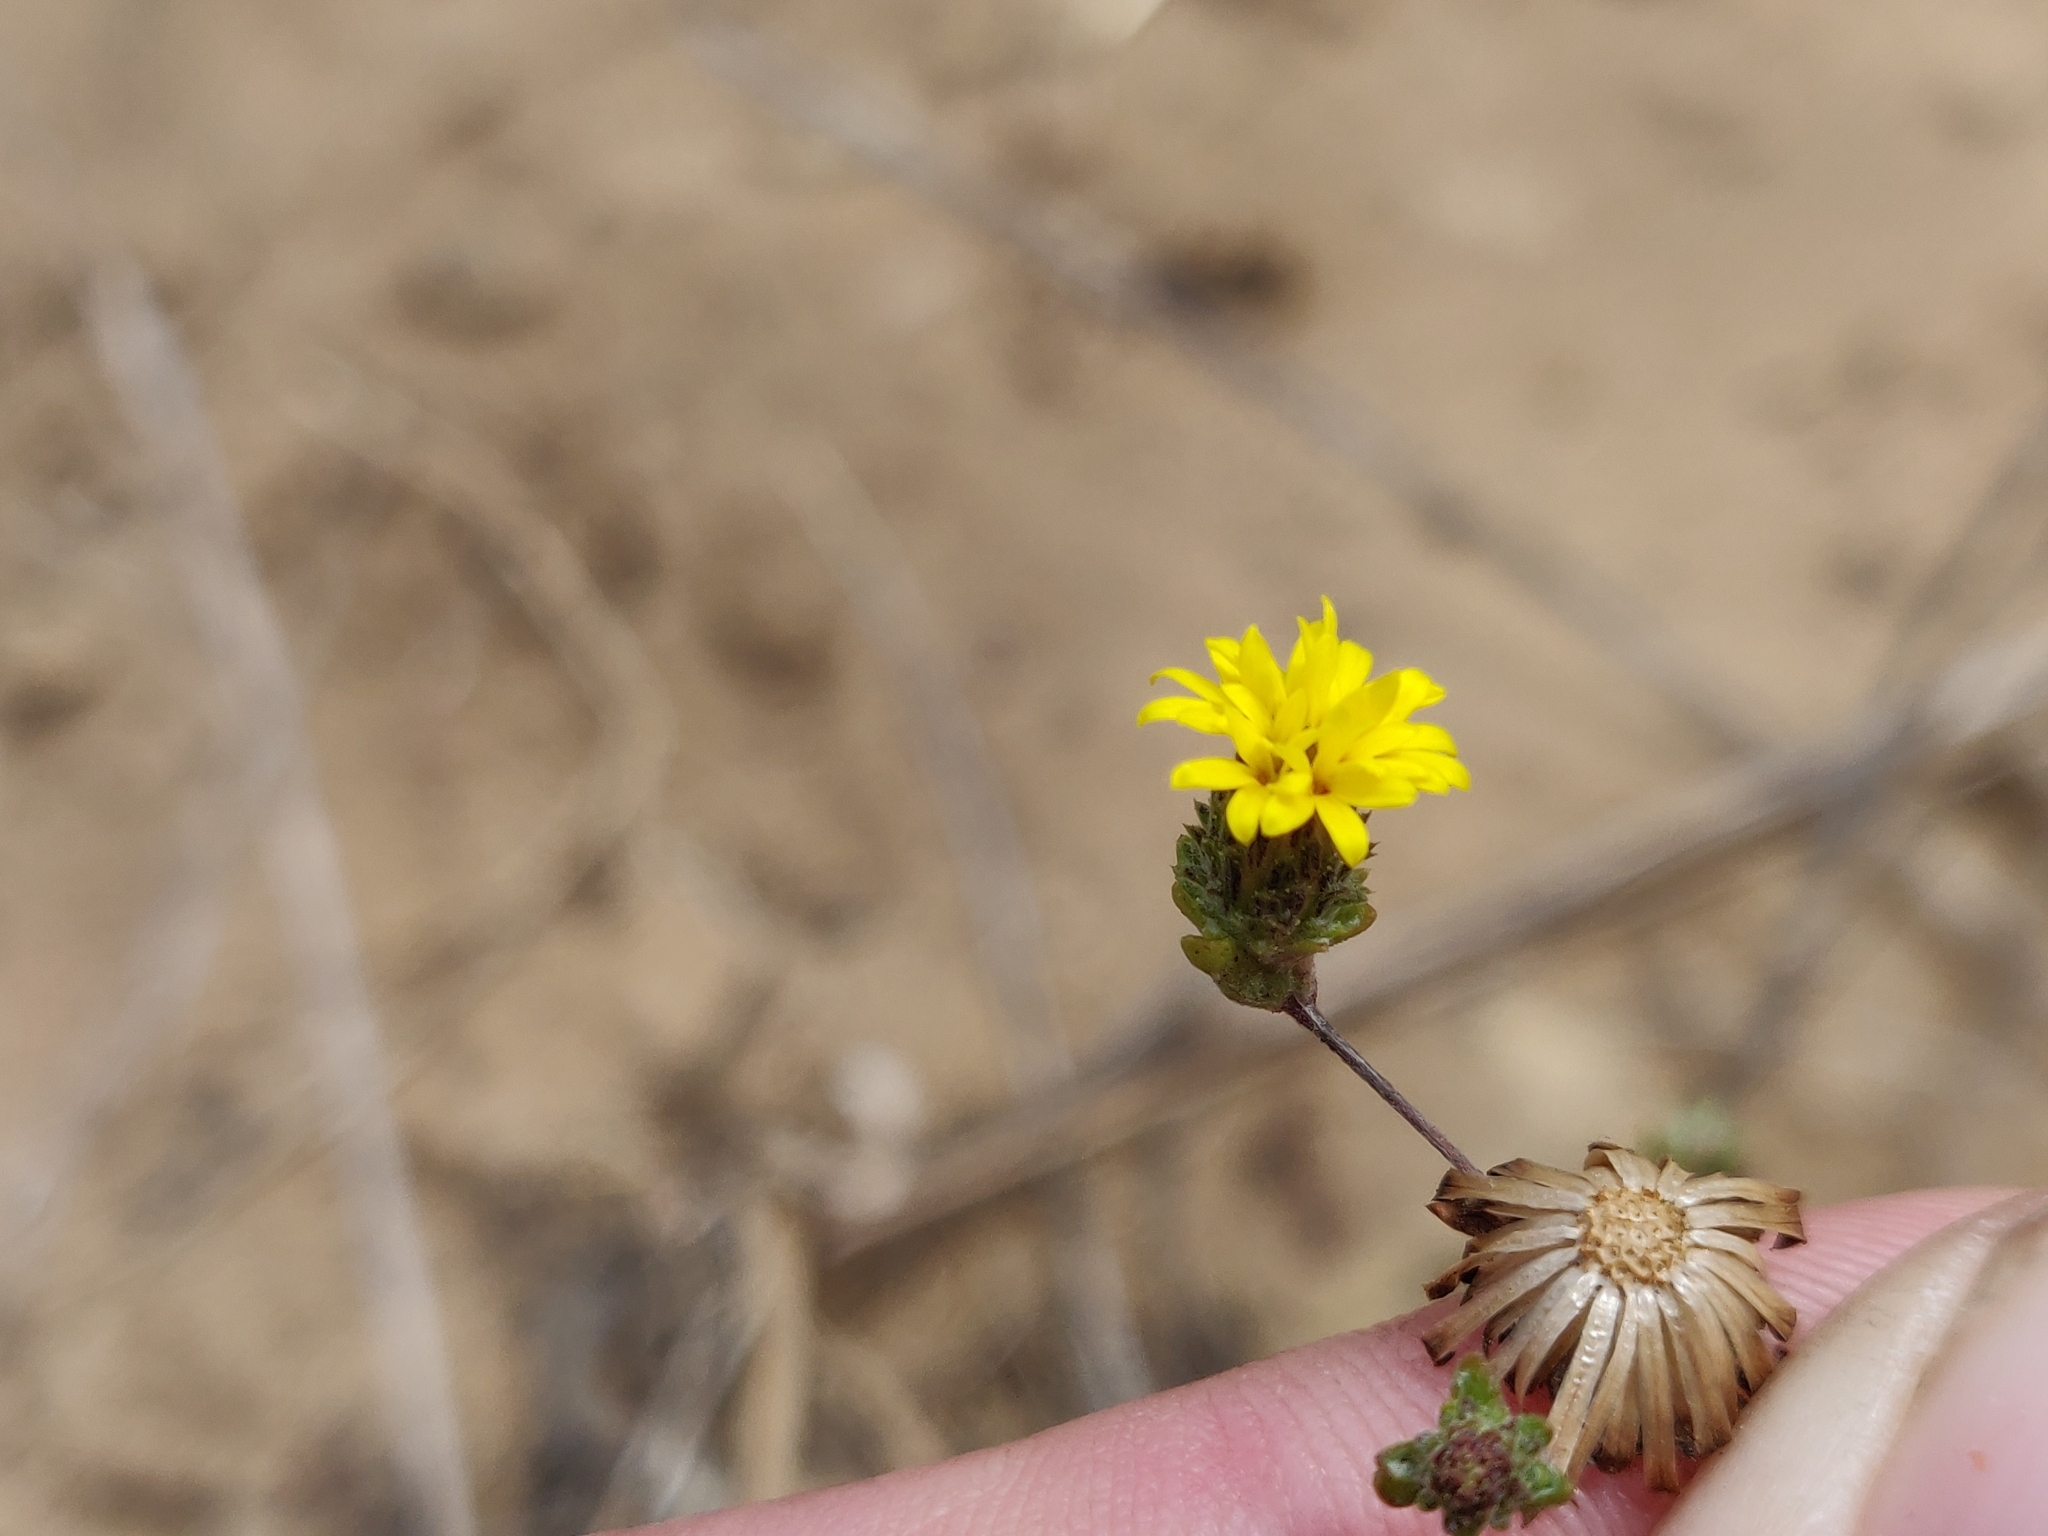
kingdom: Plantae
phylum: Tracheophyta
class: Magnoliopsida
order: Asterales
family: Asteraceae
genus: Lessingia
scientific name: Lessingia germanorum
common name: San francisco lessingia
